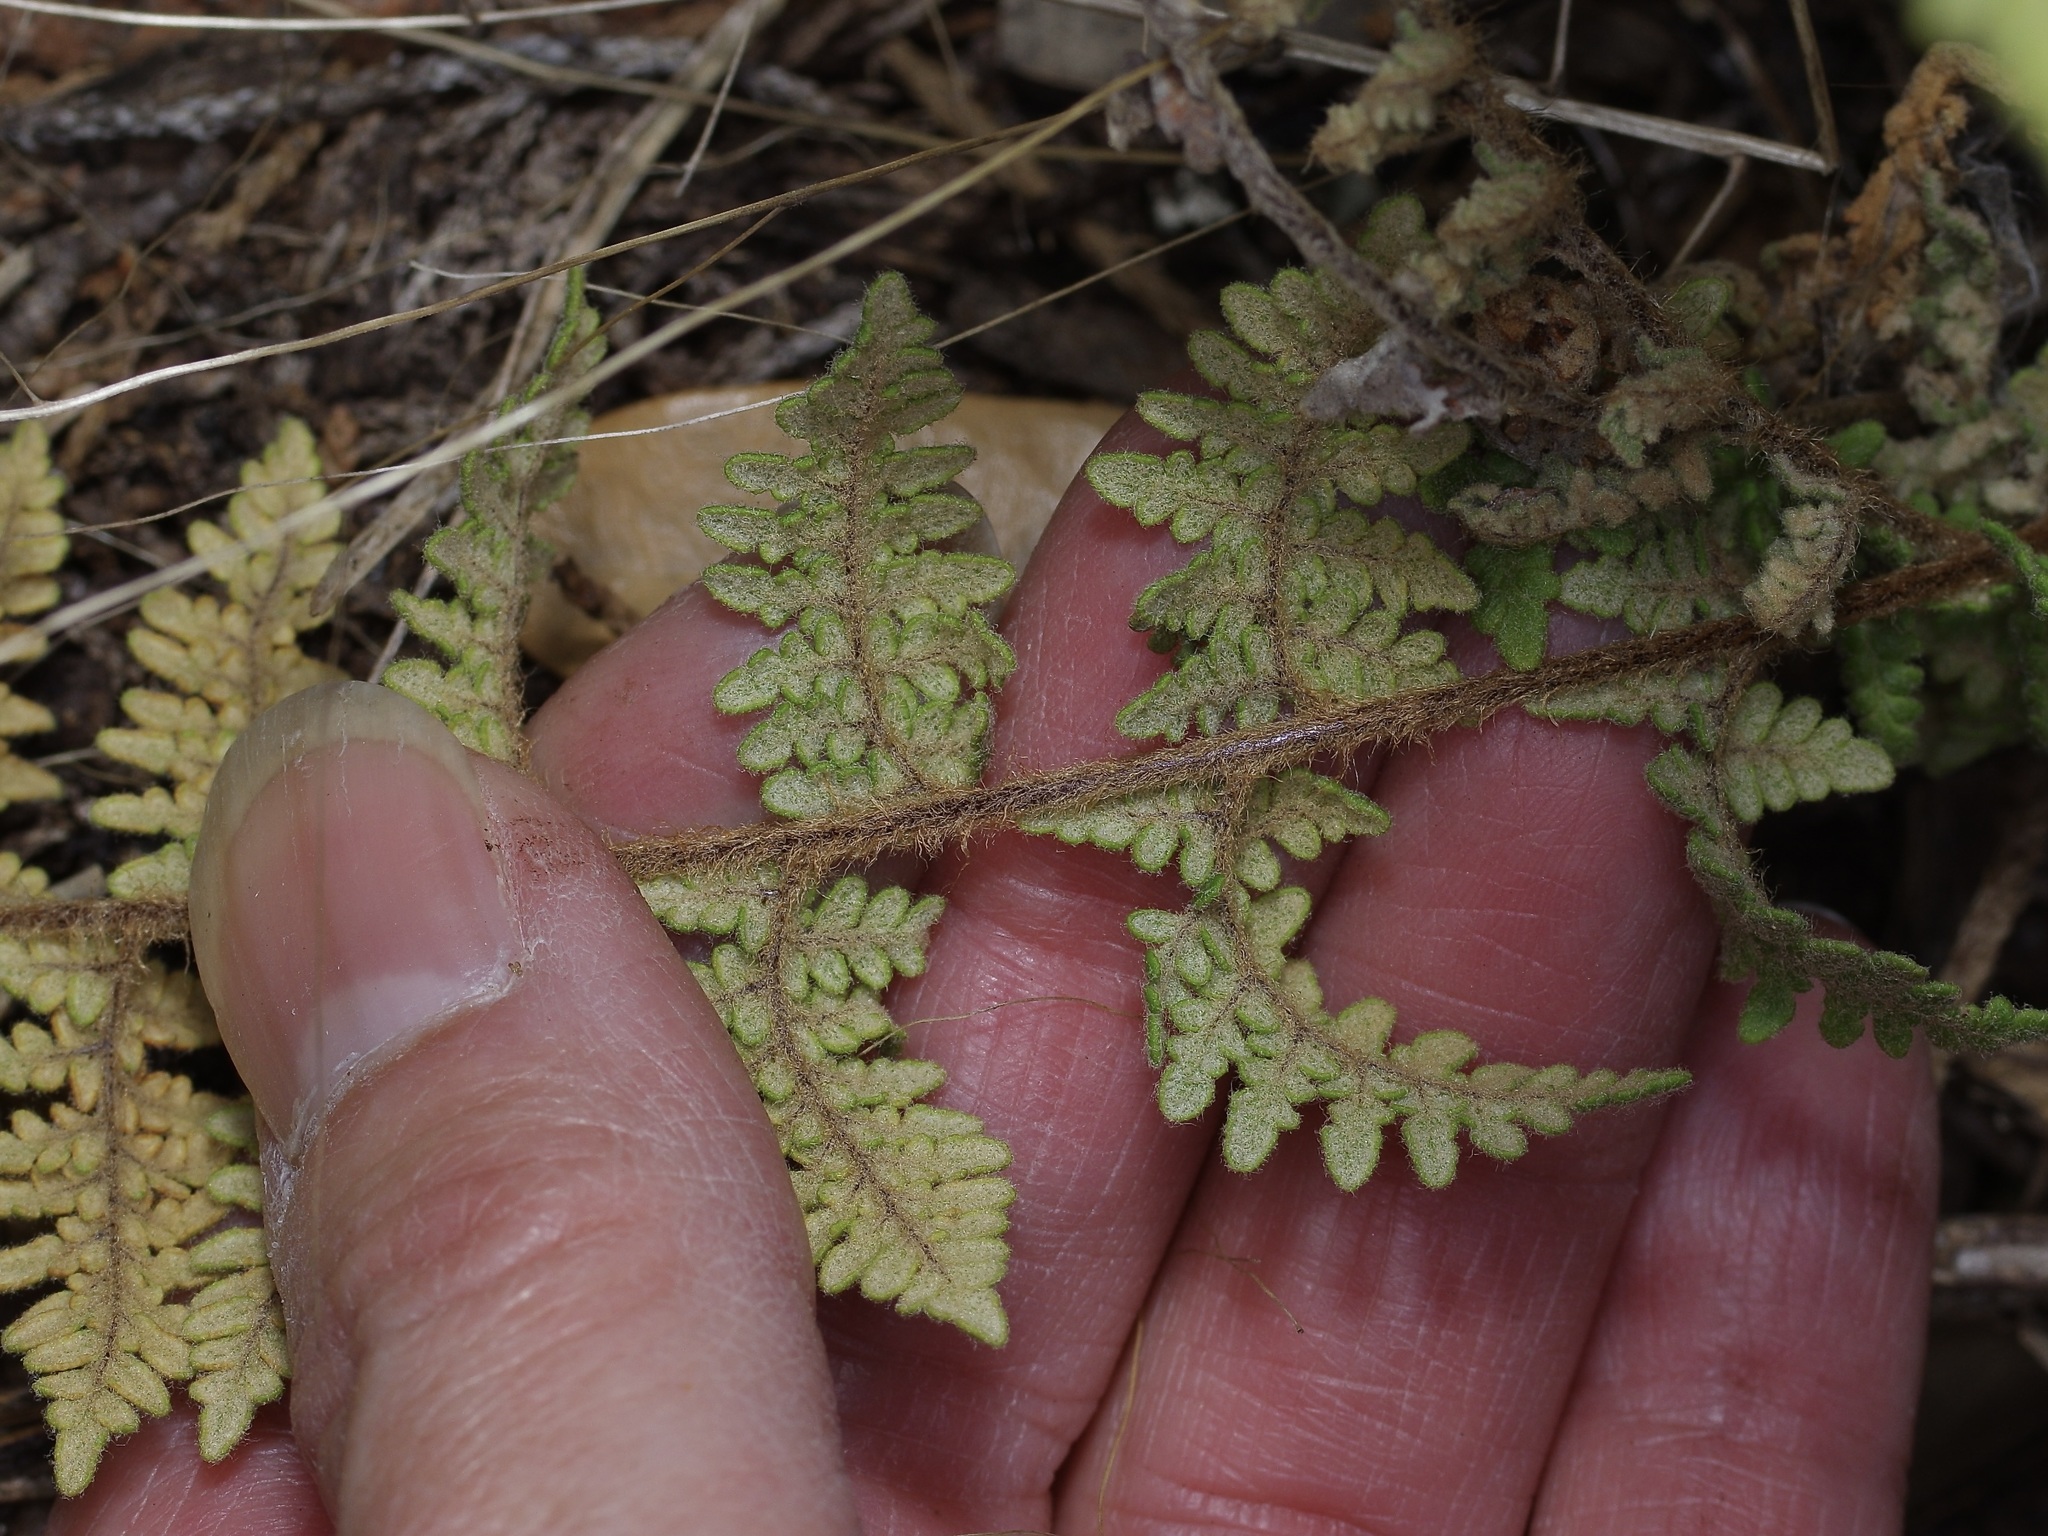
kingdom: Plantae
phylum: Tracheophyta
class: Polypodiopsida
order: Polypodiales
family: Pteridaceae
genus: Myriopteris
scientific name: Myriopteris tomentosa
